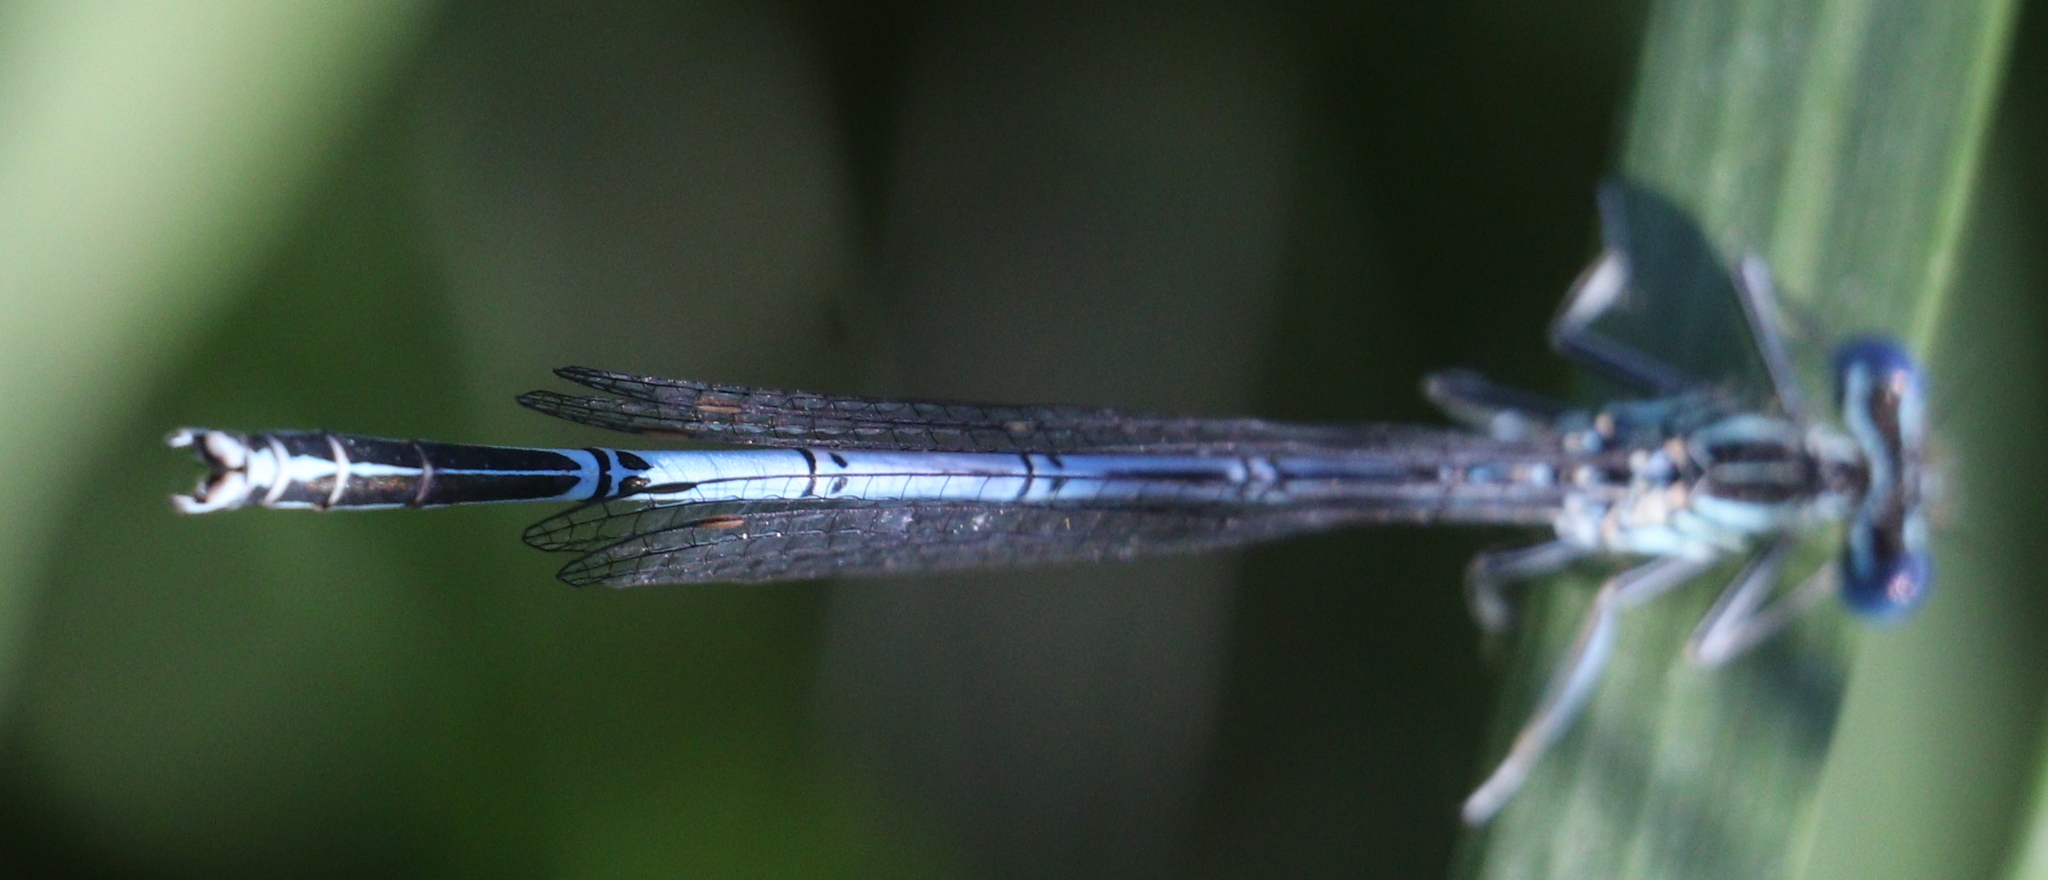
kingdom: Animalia
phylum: Arthropoda
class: Insecta
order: Odonata
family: Platycnemididae
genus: Platycnemis
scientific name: Platycnemis pennipes
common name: White-legged damselfly
